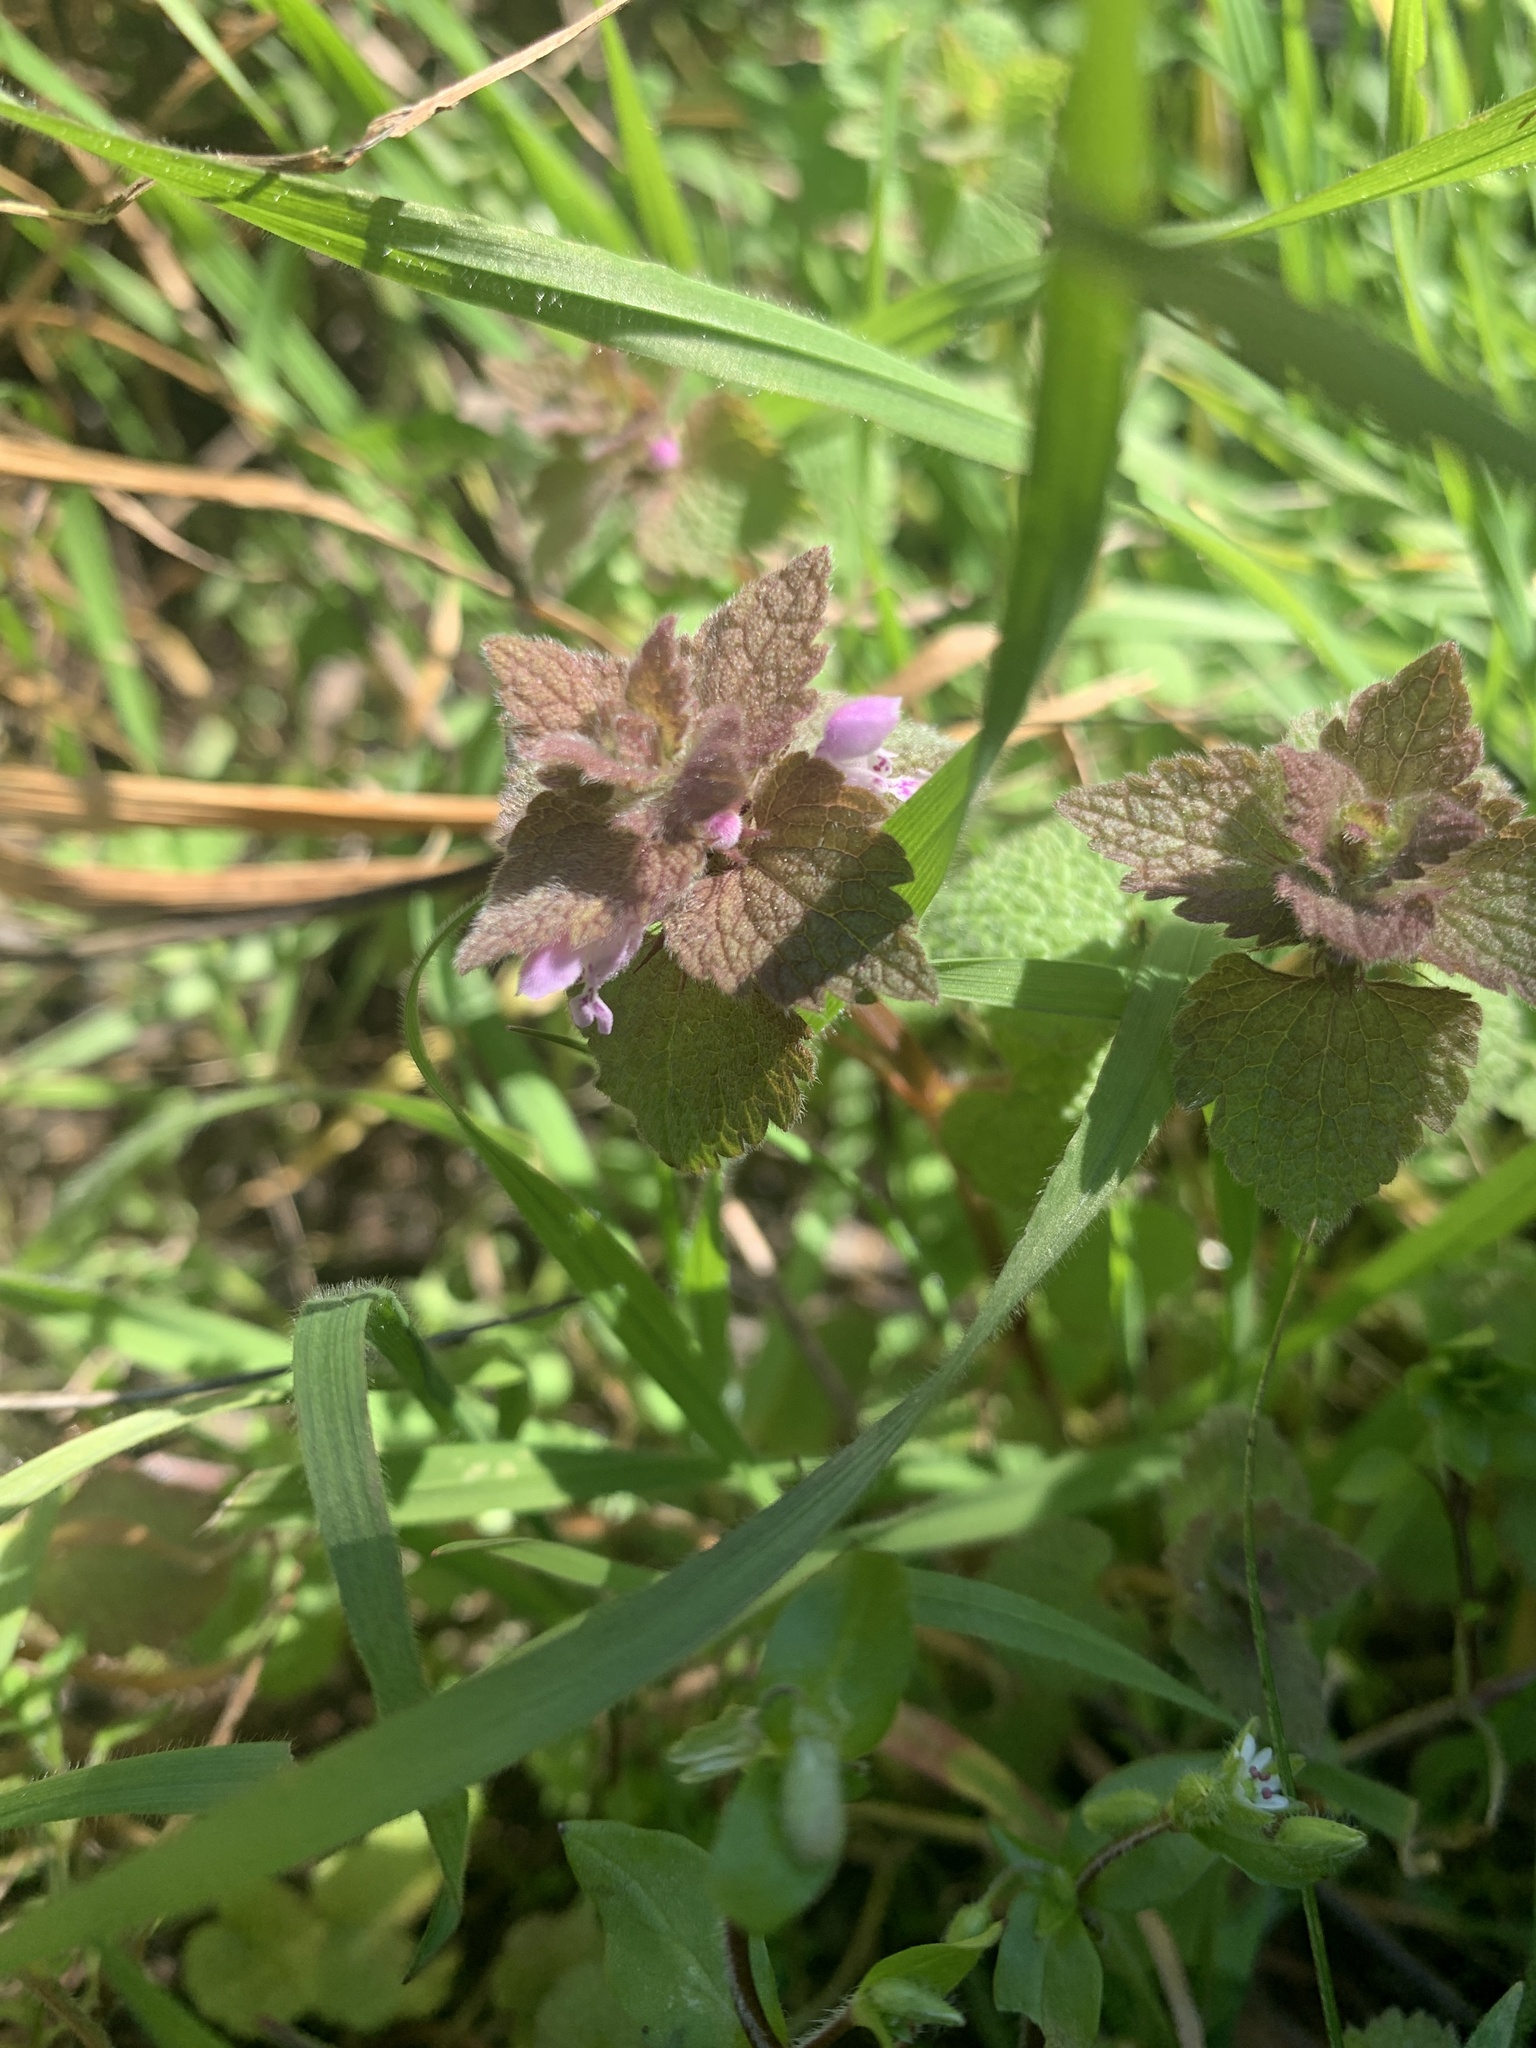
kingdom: Plantae
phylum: Tracheophyta
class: Magnoliopsida
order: Lamiales
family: Lamiaceae
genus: Lamium
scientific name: Lamium purpureum
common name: Red dead-nettle
